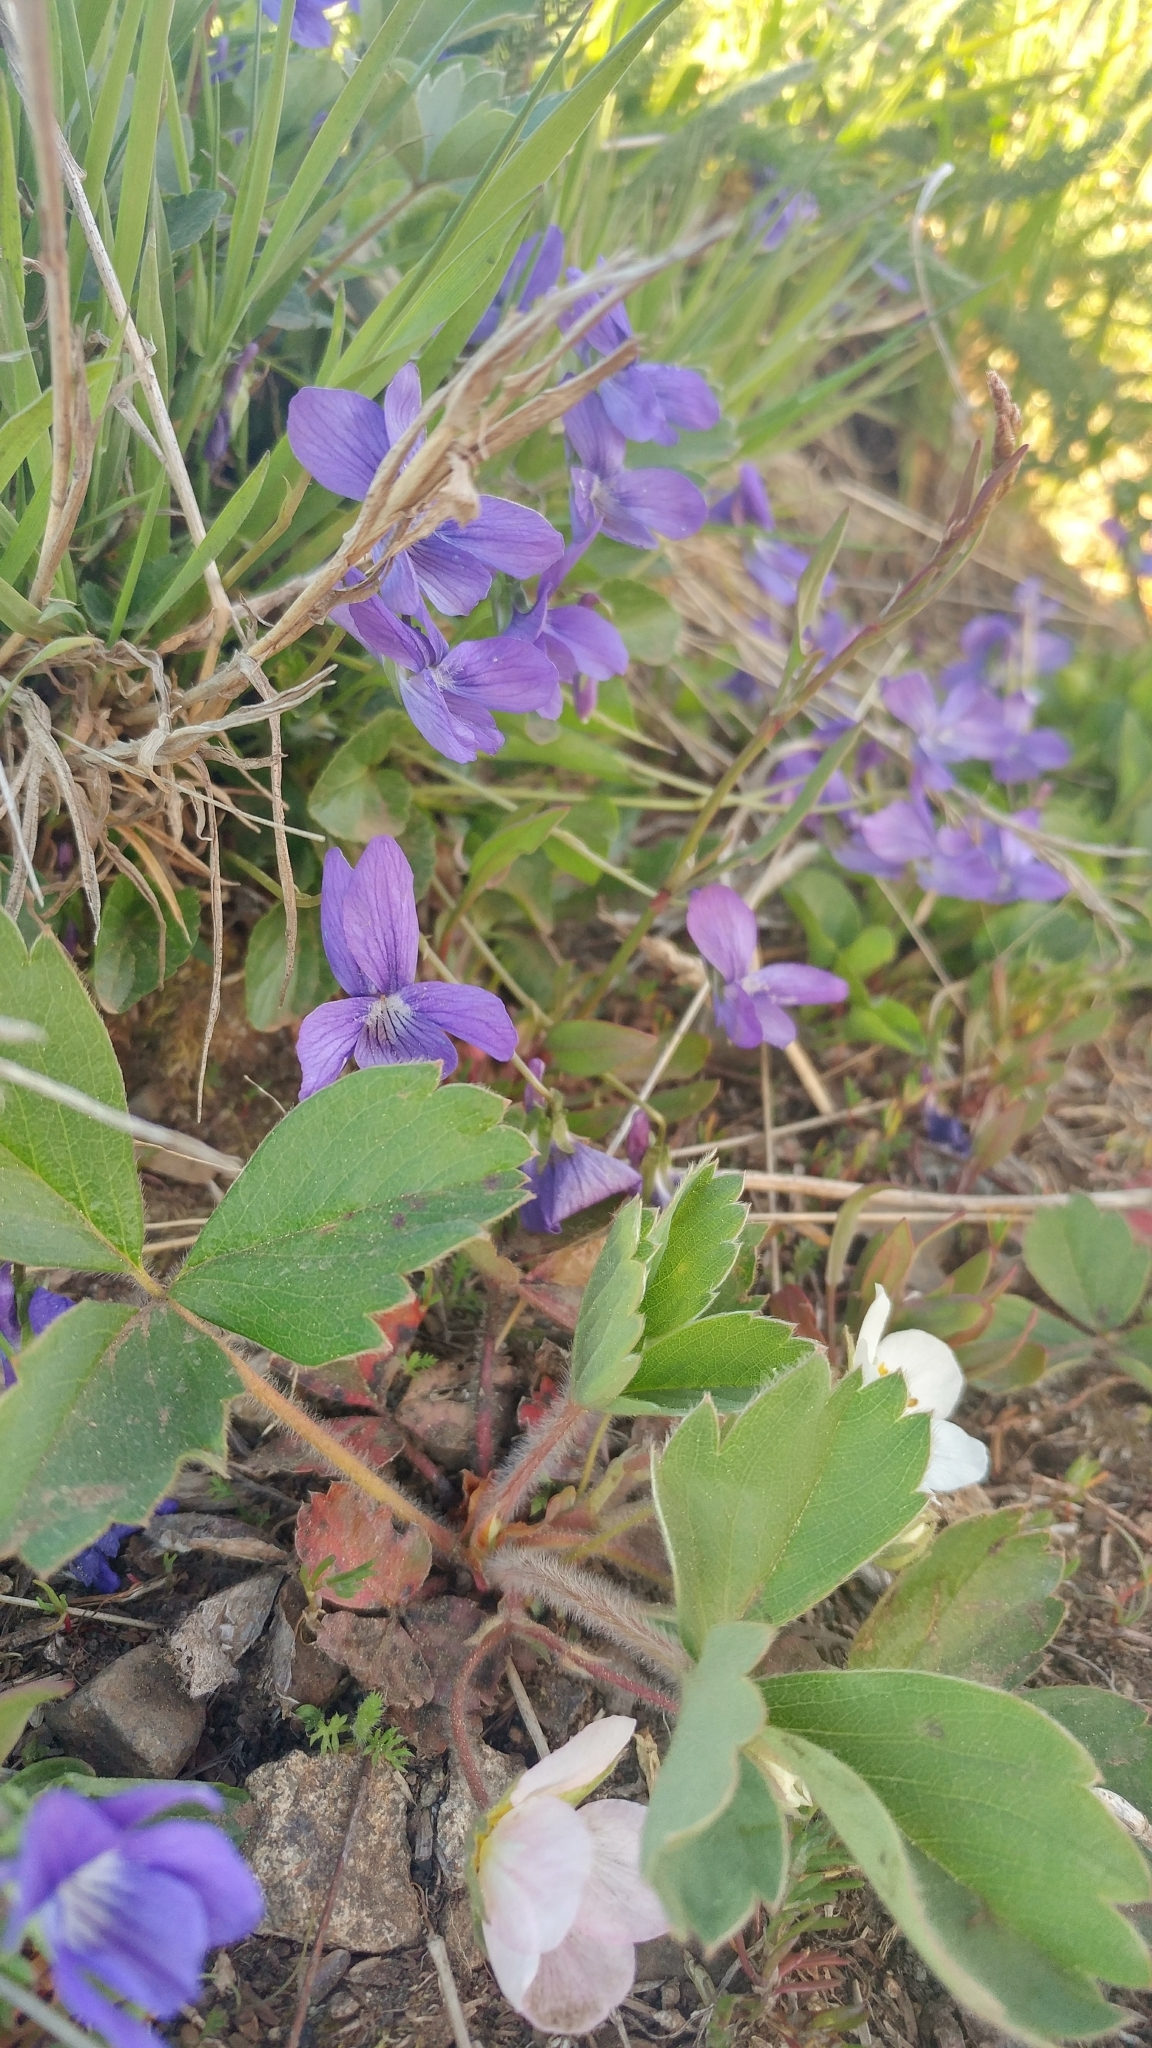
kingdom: Plantae
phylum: Tracheophyta
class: Magnoliopsida
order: Malpighiales
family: Violaceae
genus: Viola
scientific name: Viola adunca
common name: Sand violet
